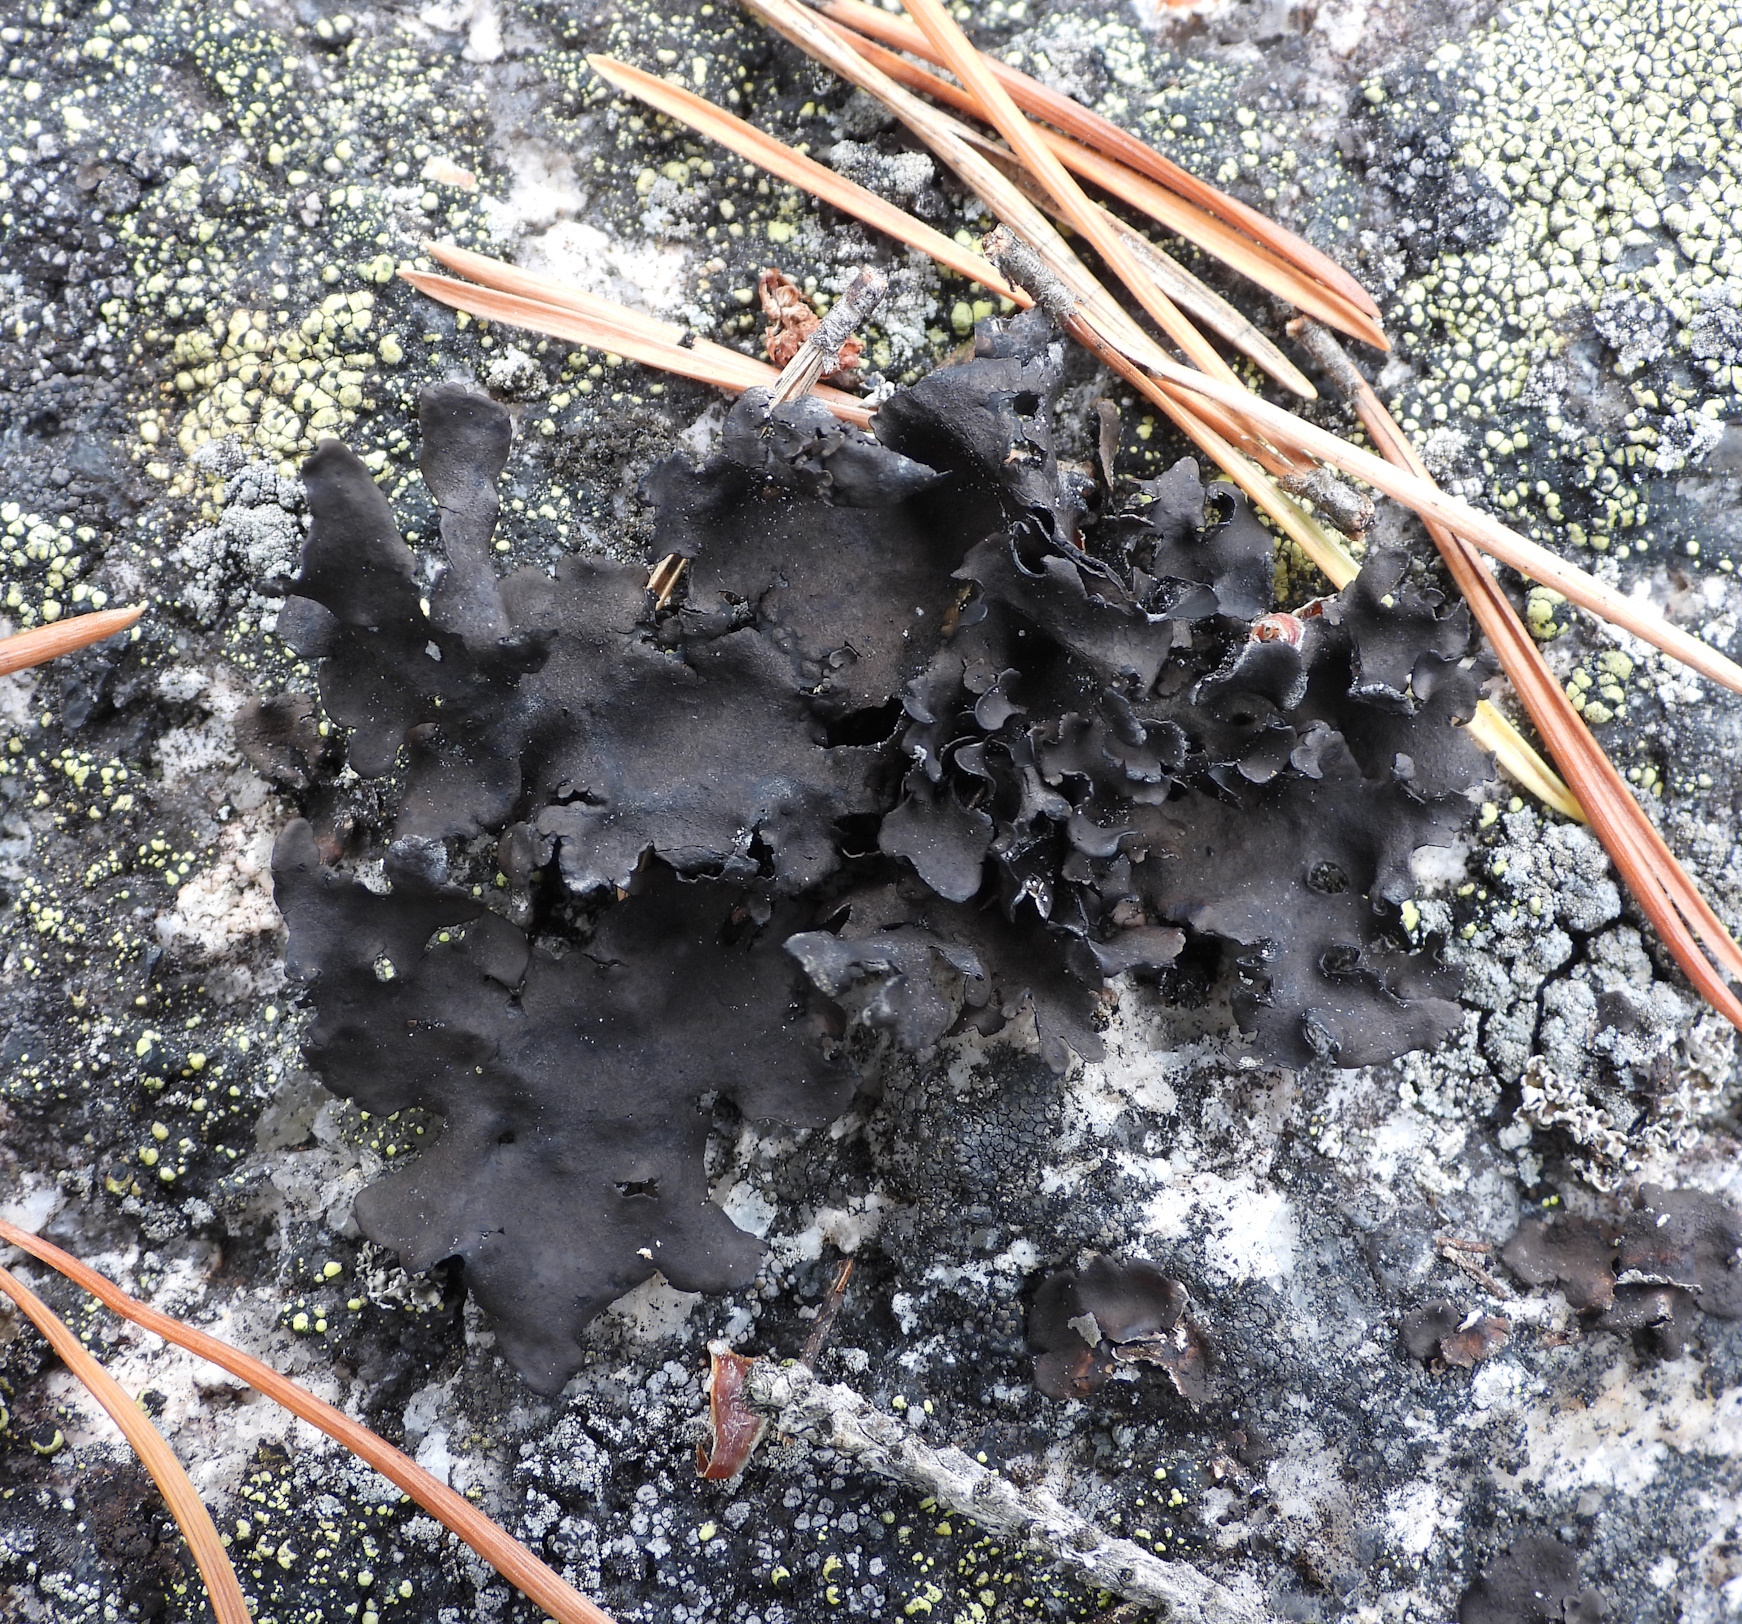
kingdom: Fungi
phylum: Ascomycota
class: Lecanoromycetes
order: Umbilicariales
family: Umbilicariaceae
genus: Umbilicaria
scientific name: Umbilicaria polyphylla
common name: Petalled rocktripe lichen
